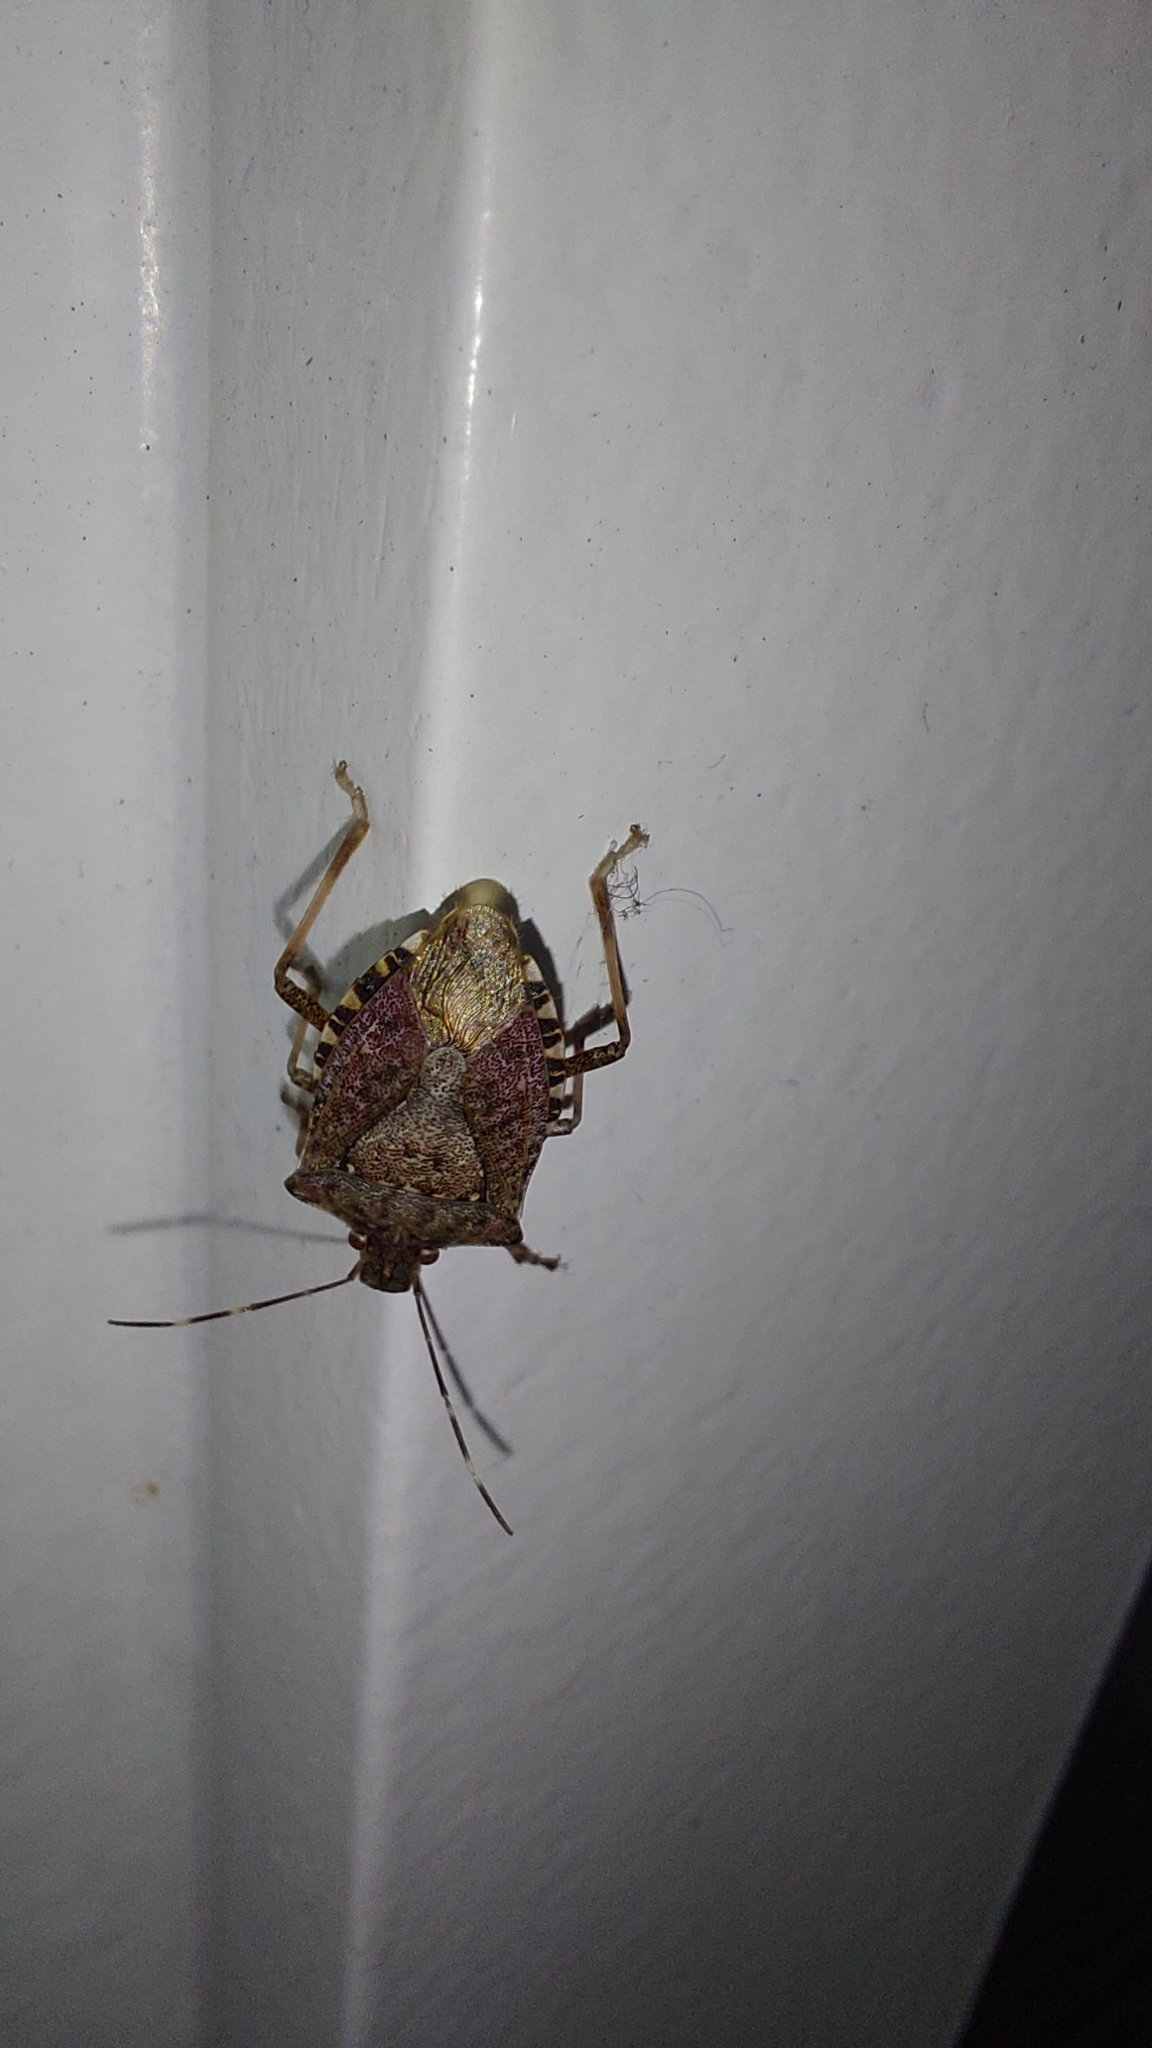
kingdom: Animalia
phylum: Arthropoda
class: Insecta
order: Hemiptera
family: Pentatomidae
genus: Halyomorpha
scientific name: Halyomorpha halys
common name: Brown marmorated stink bug
